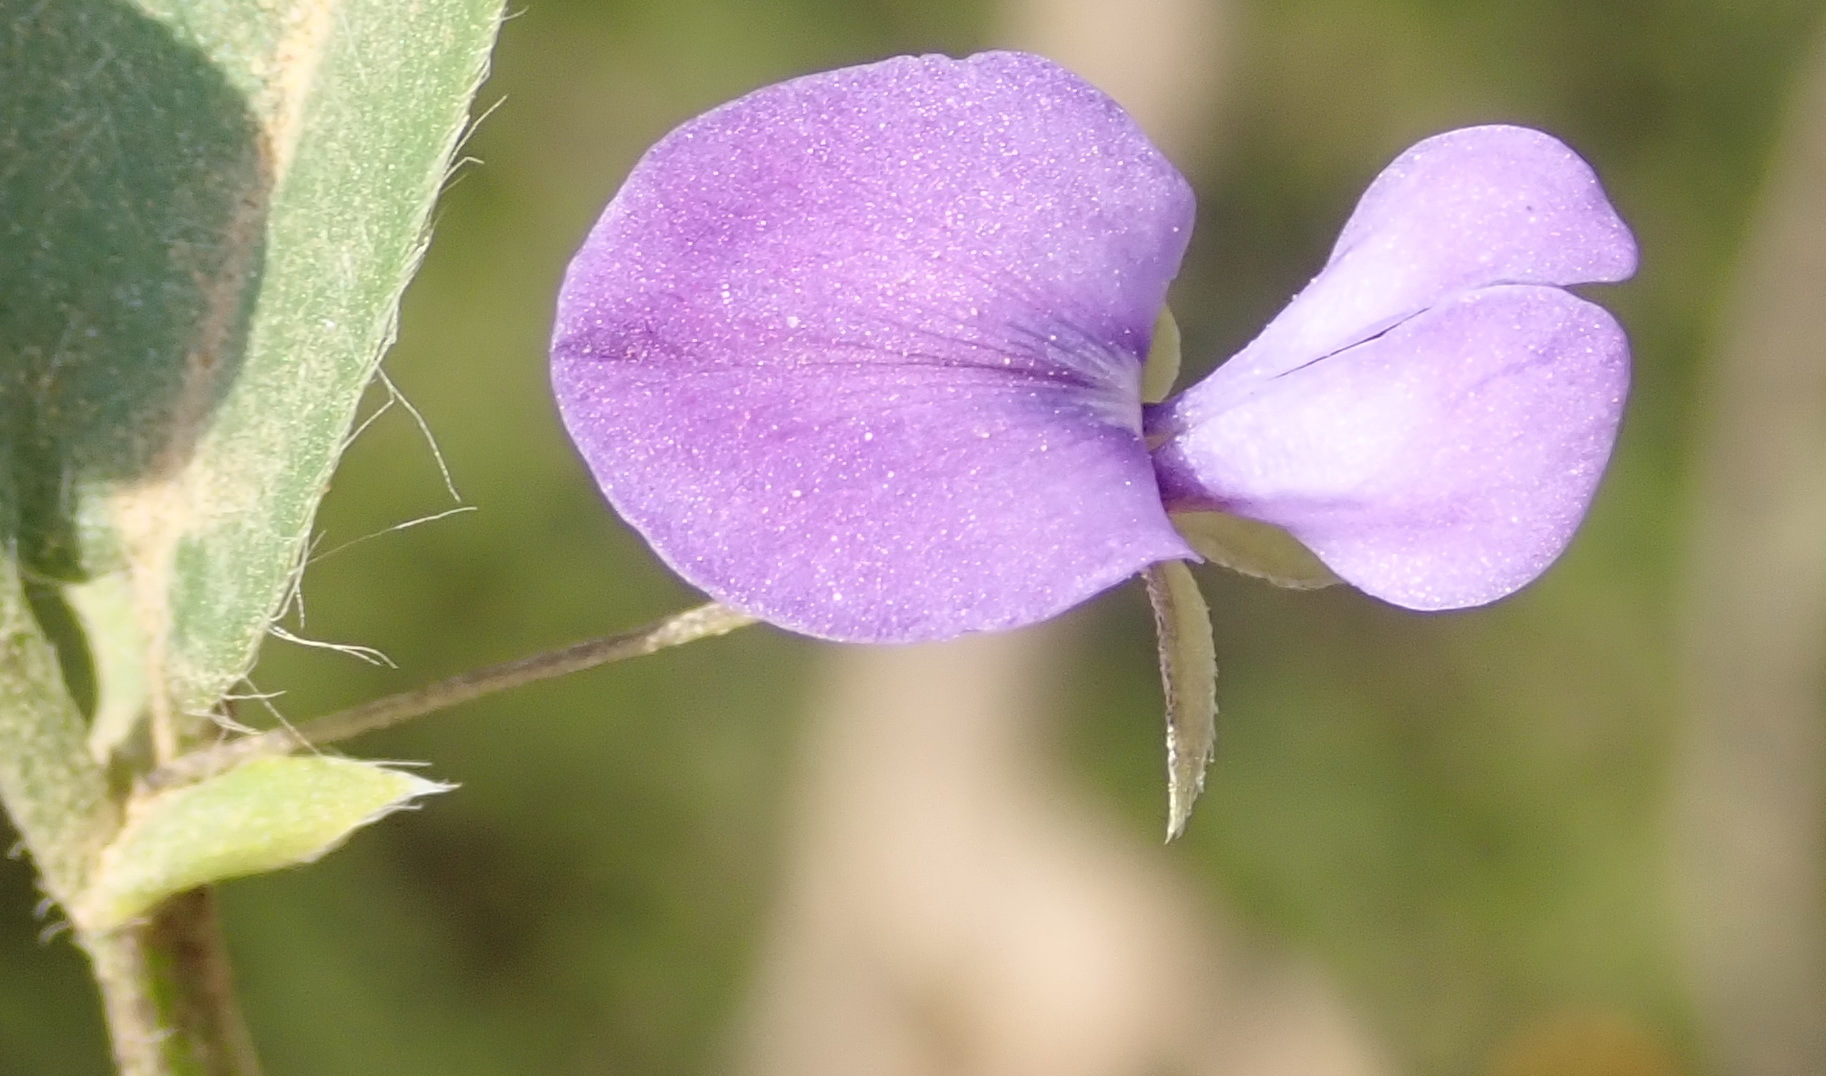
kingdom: Plantae
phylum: Tracheophyta
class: Magnoliopsida
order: Fabales
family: Fabaceae
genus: Psoralea
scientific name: Psoralea plauta
